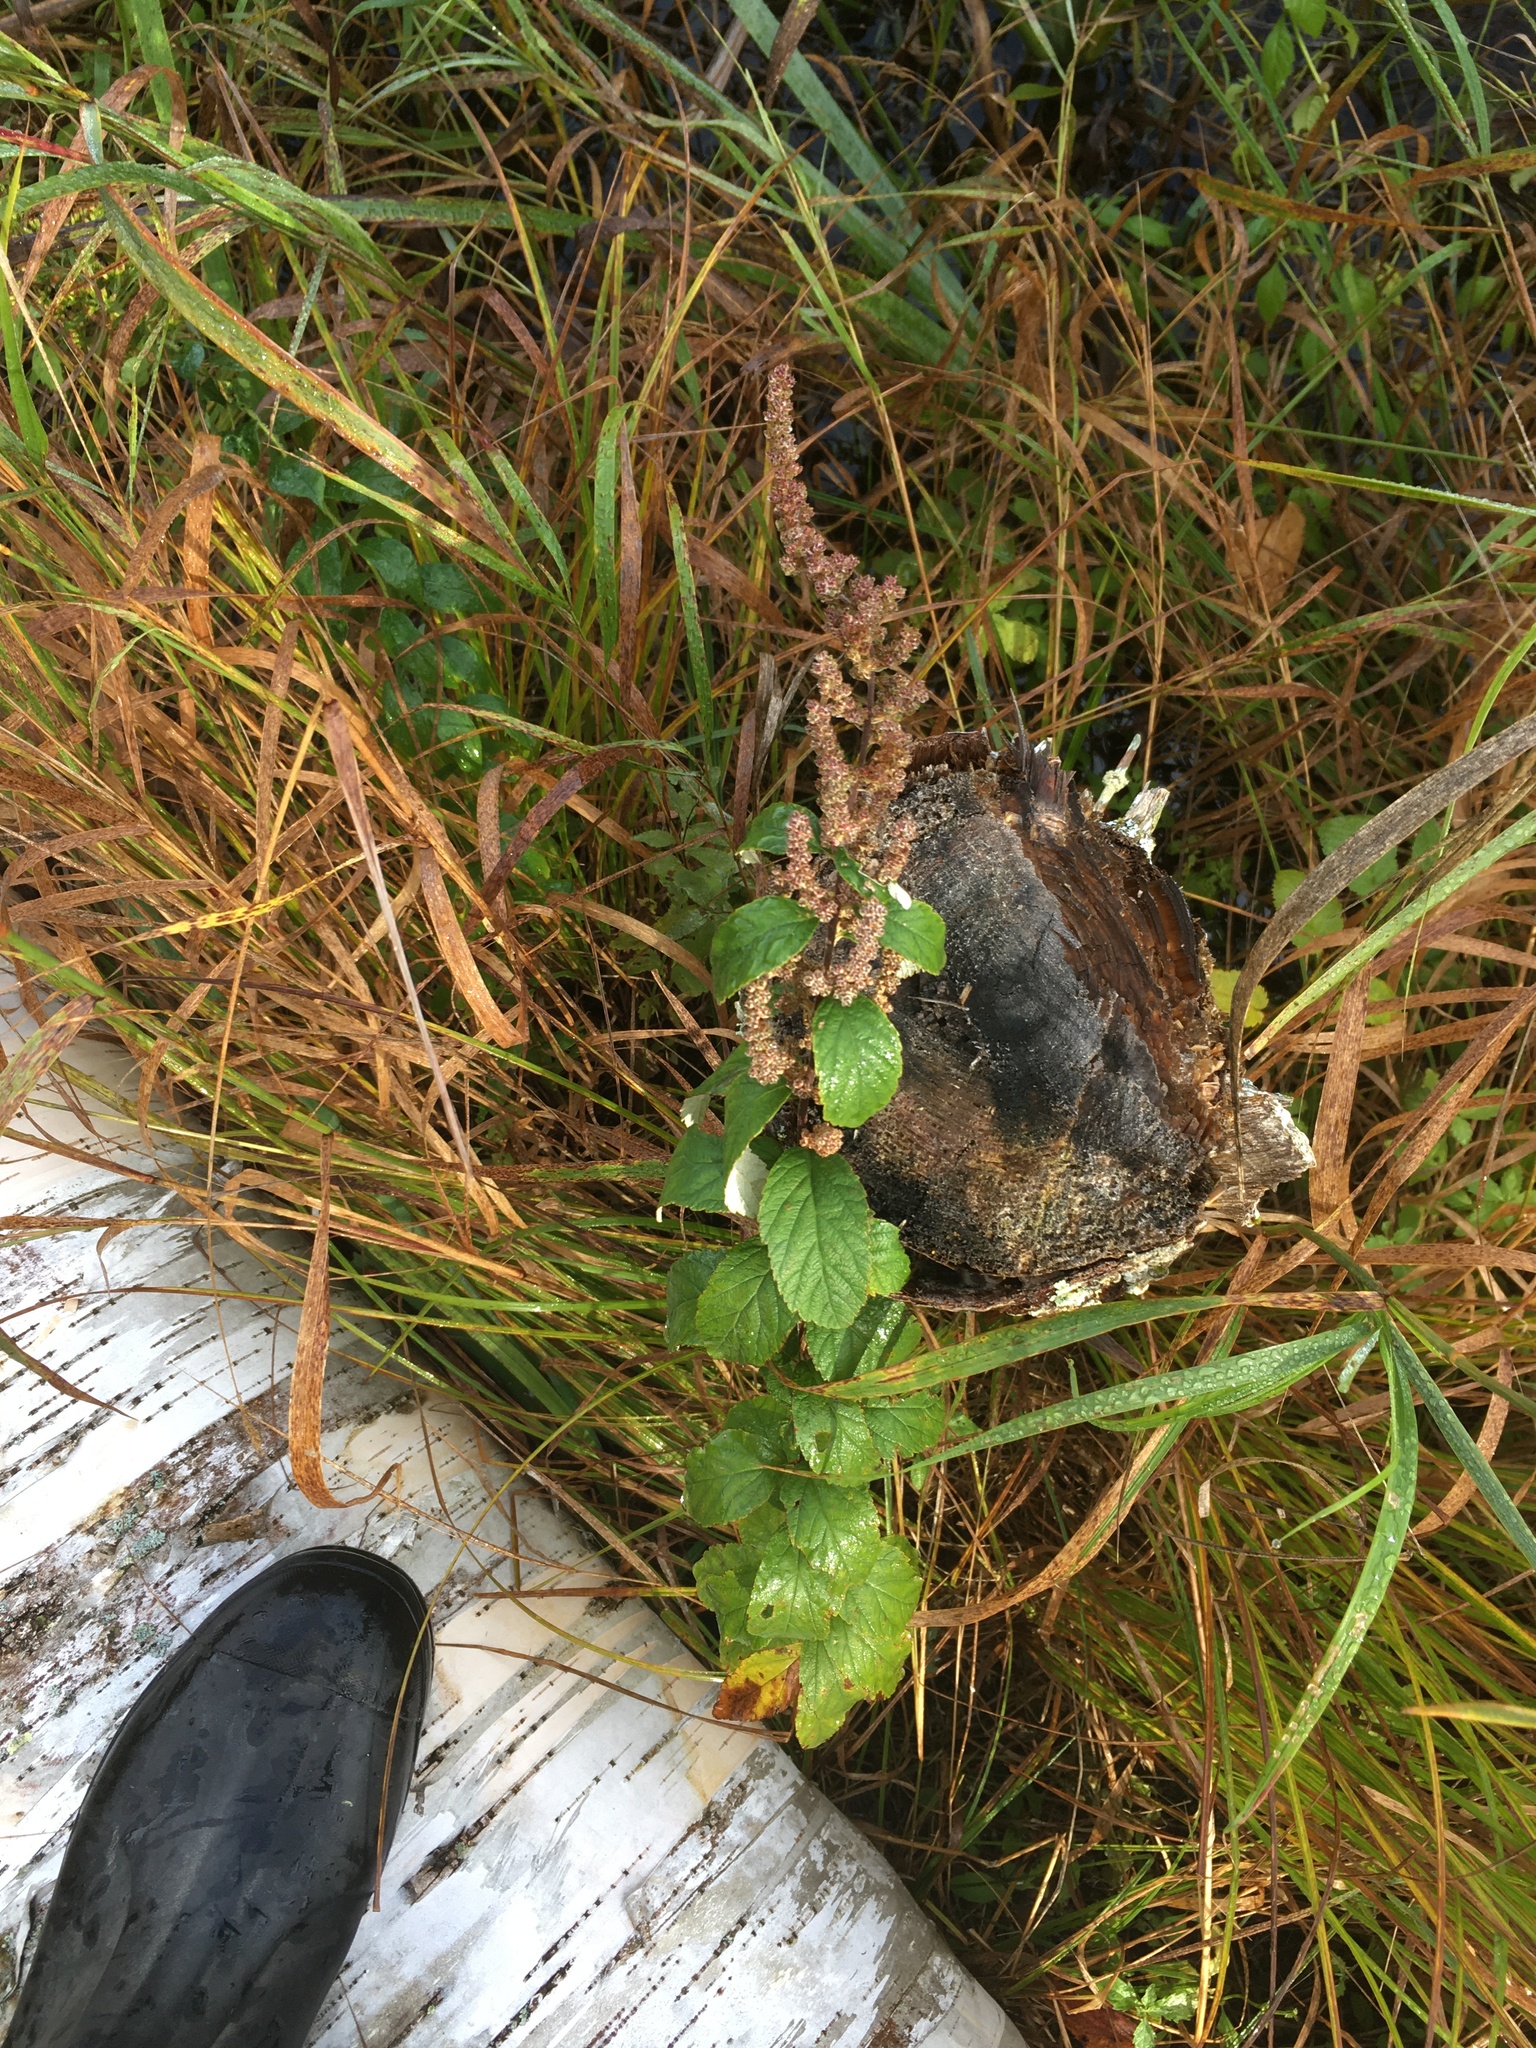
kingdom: Plantae
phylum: Tracheophyta
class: Magnoliopsida
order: Rosales
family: Rosaceae
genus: Spiraea
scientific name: Spiraea tomentosa
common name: Hardhack
